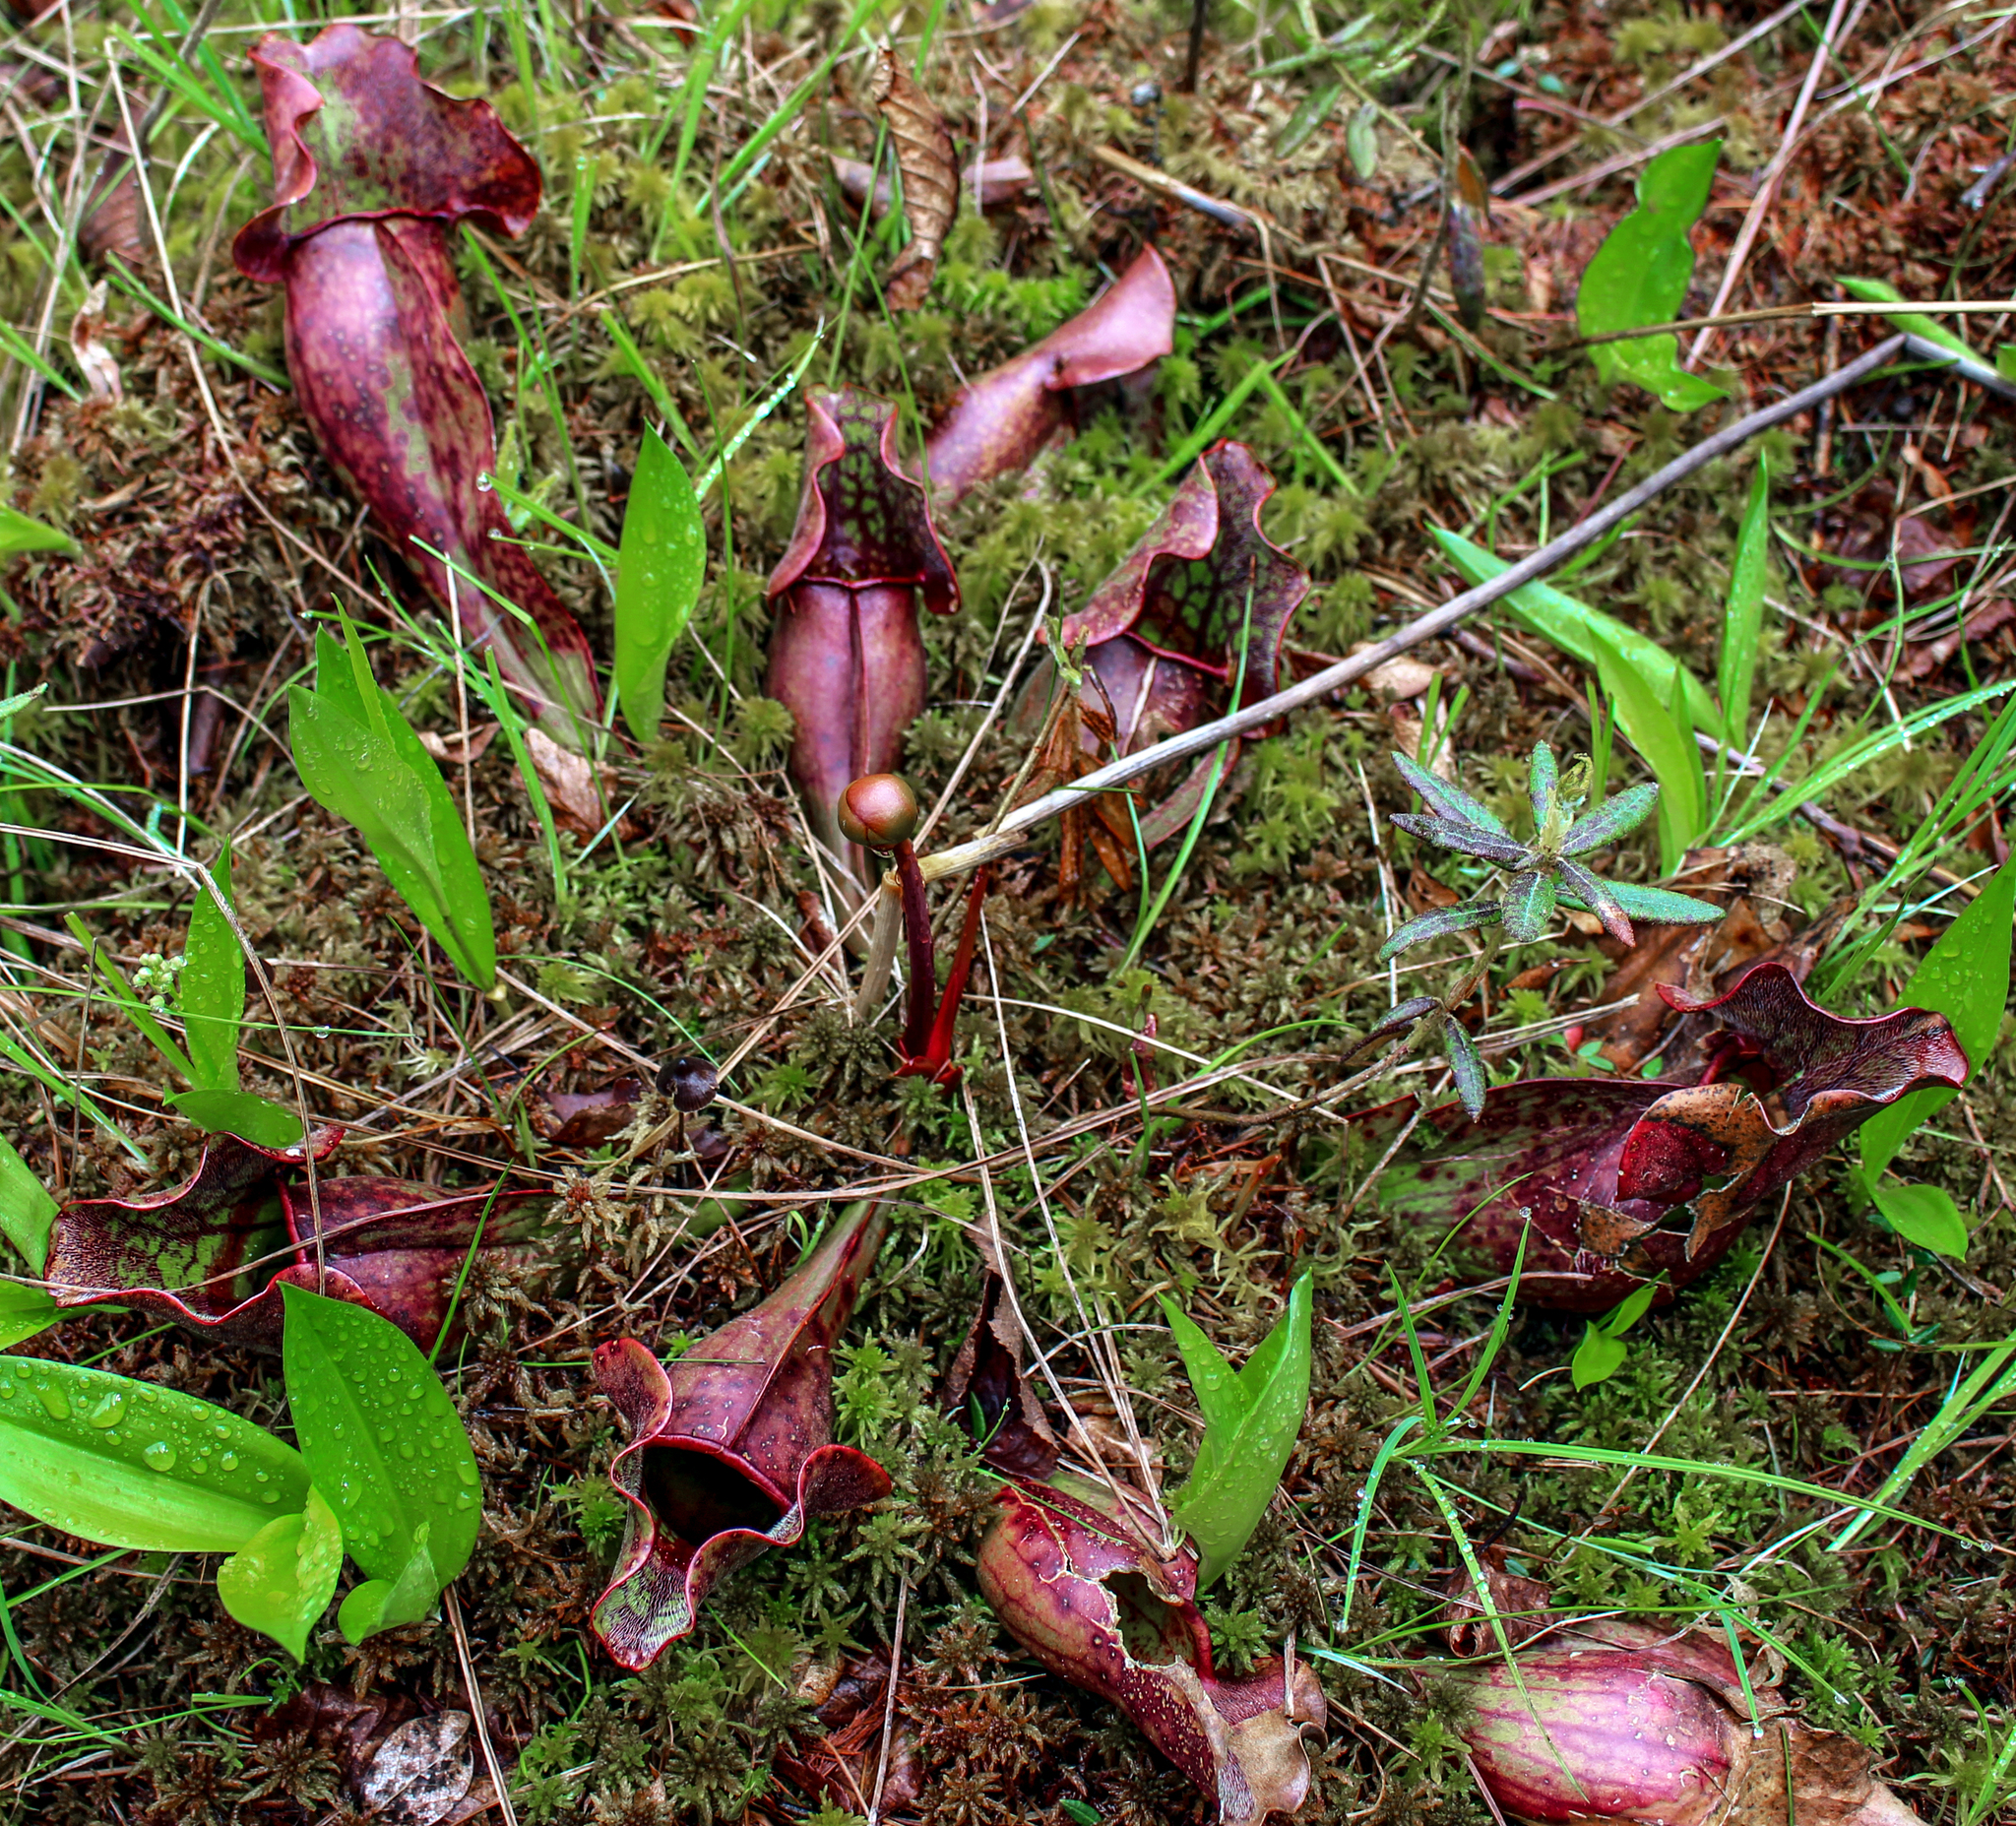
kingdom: Plantae
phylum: Tracheophyta
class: Magnoliopsida
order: Ericales
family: Sarraceniaceae
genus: Sarracenia
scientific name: Sarracenia purpurea
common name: Pitcherplant
